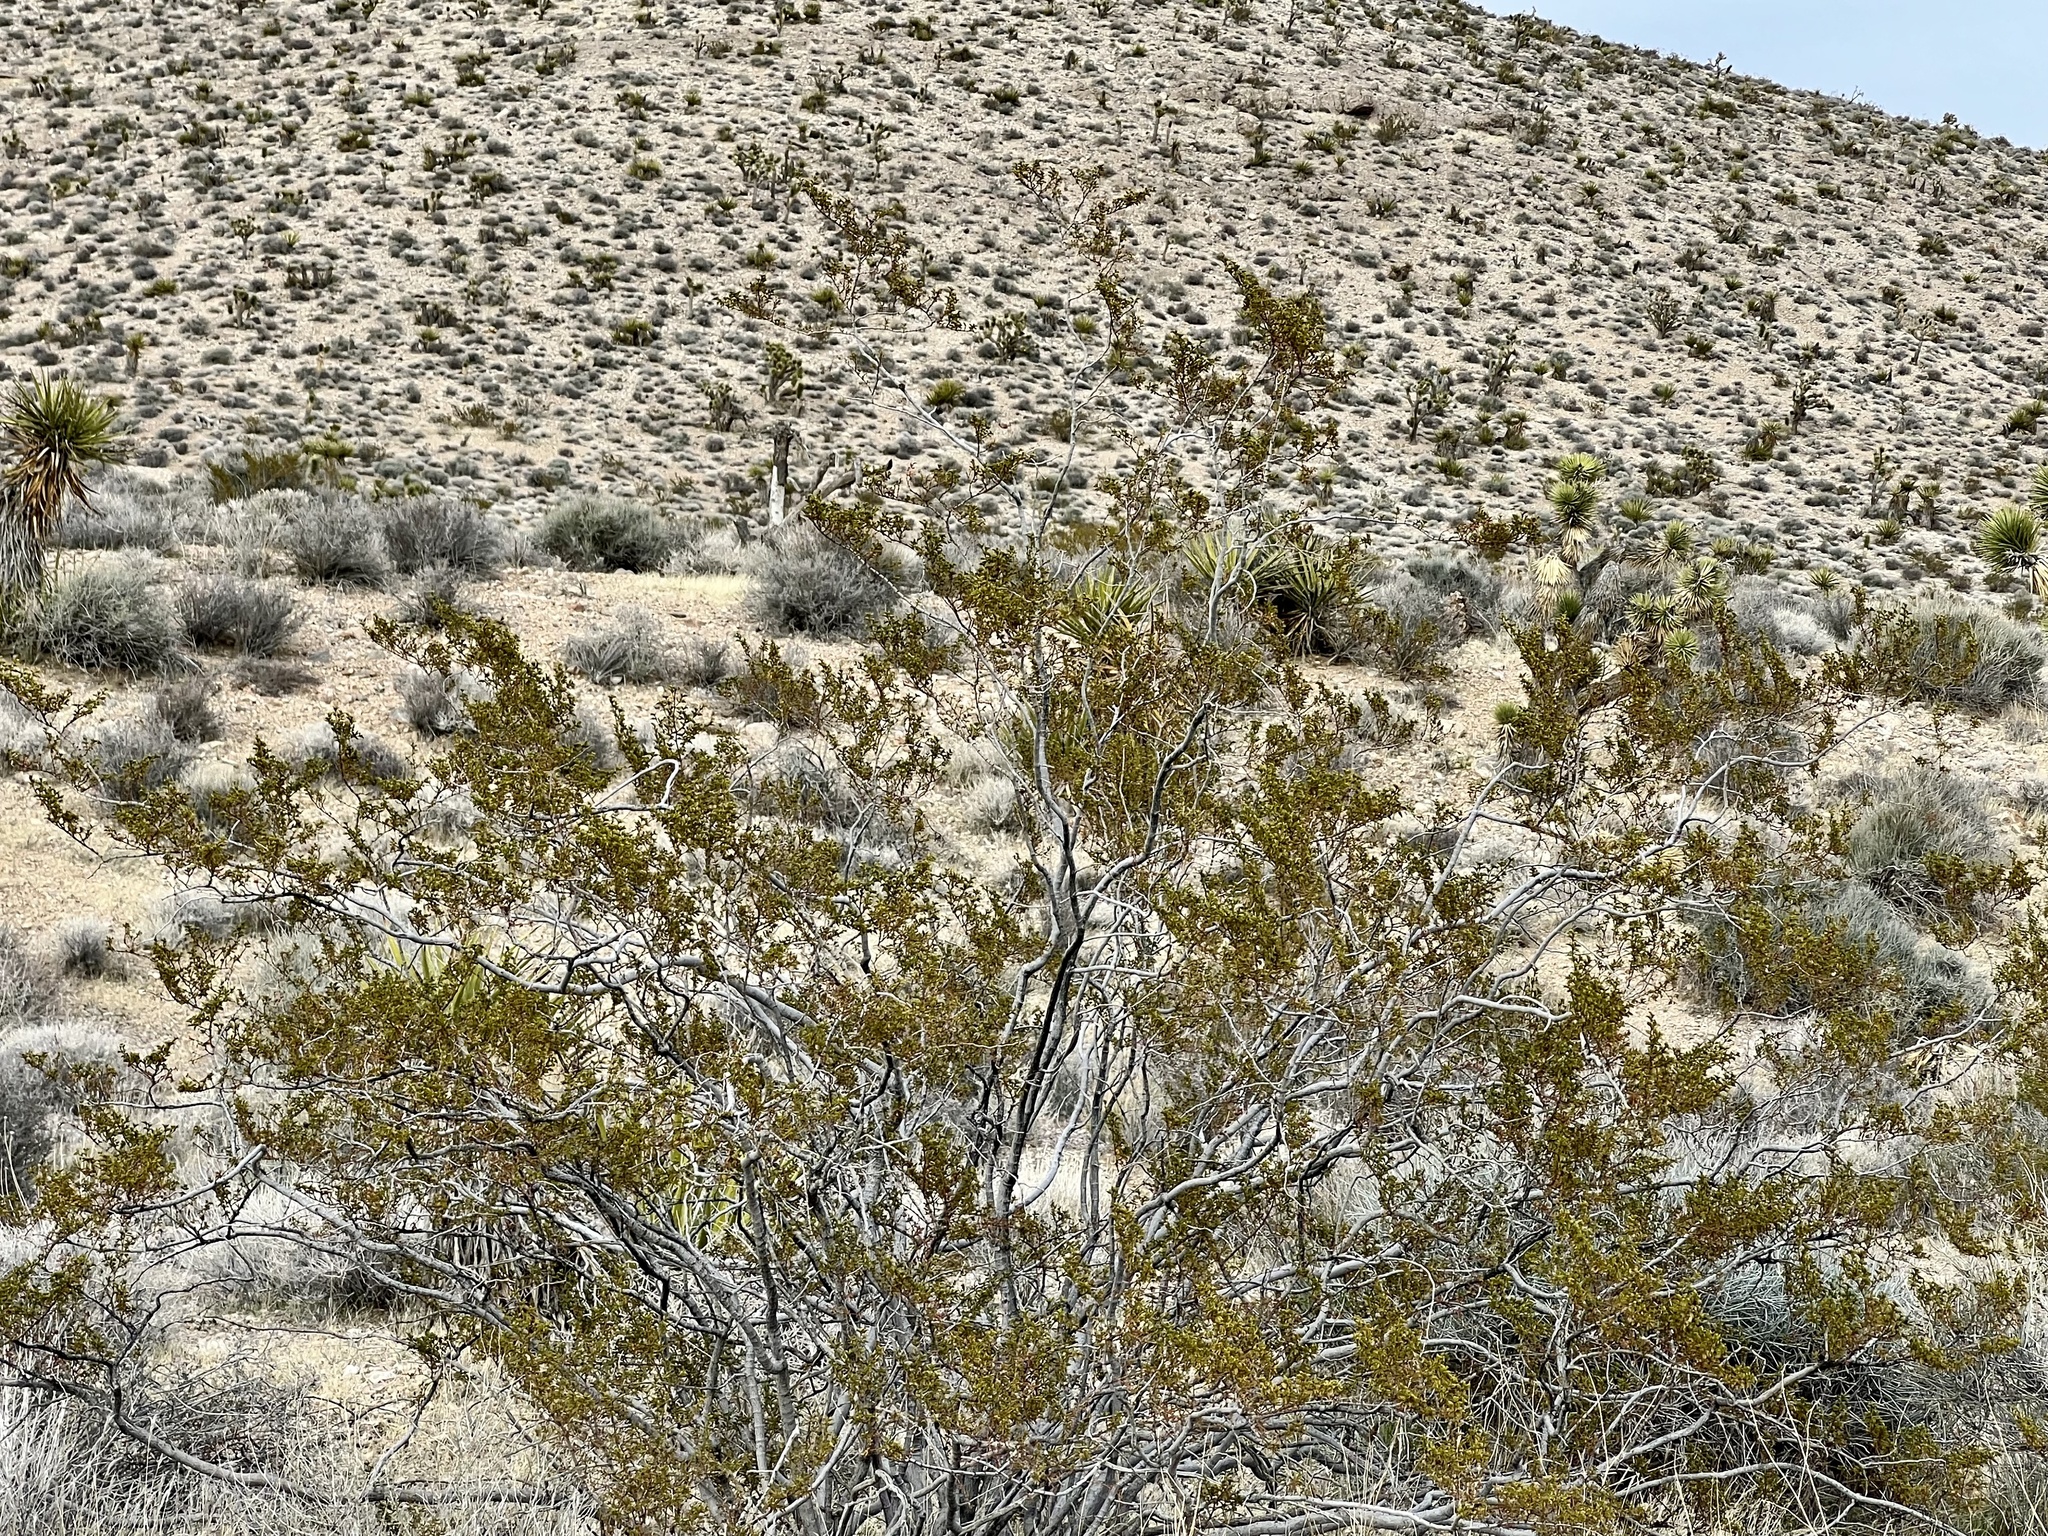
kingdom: Plantae
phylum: Tracheophyta
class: Magnoliopsida
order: Zygophyllales
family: Zygophyllaceae
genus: Larrea
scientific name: Larrea tridentata
